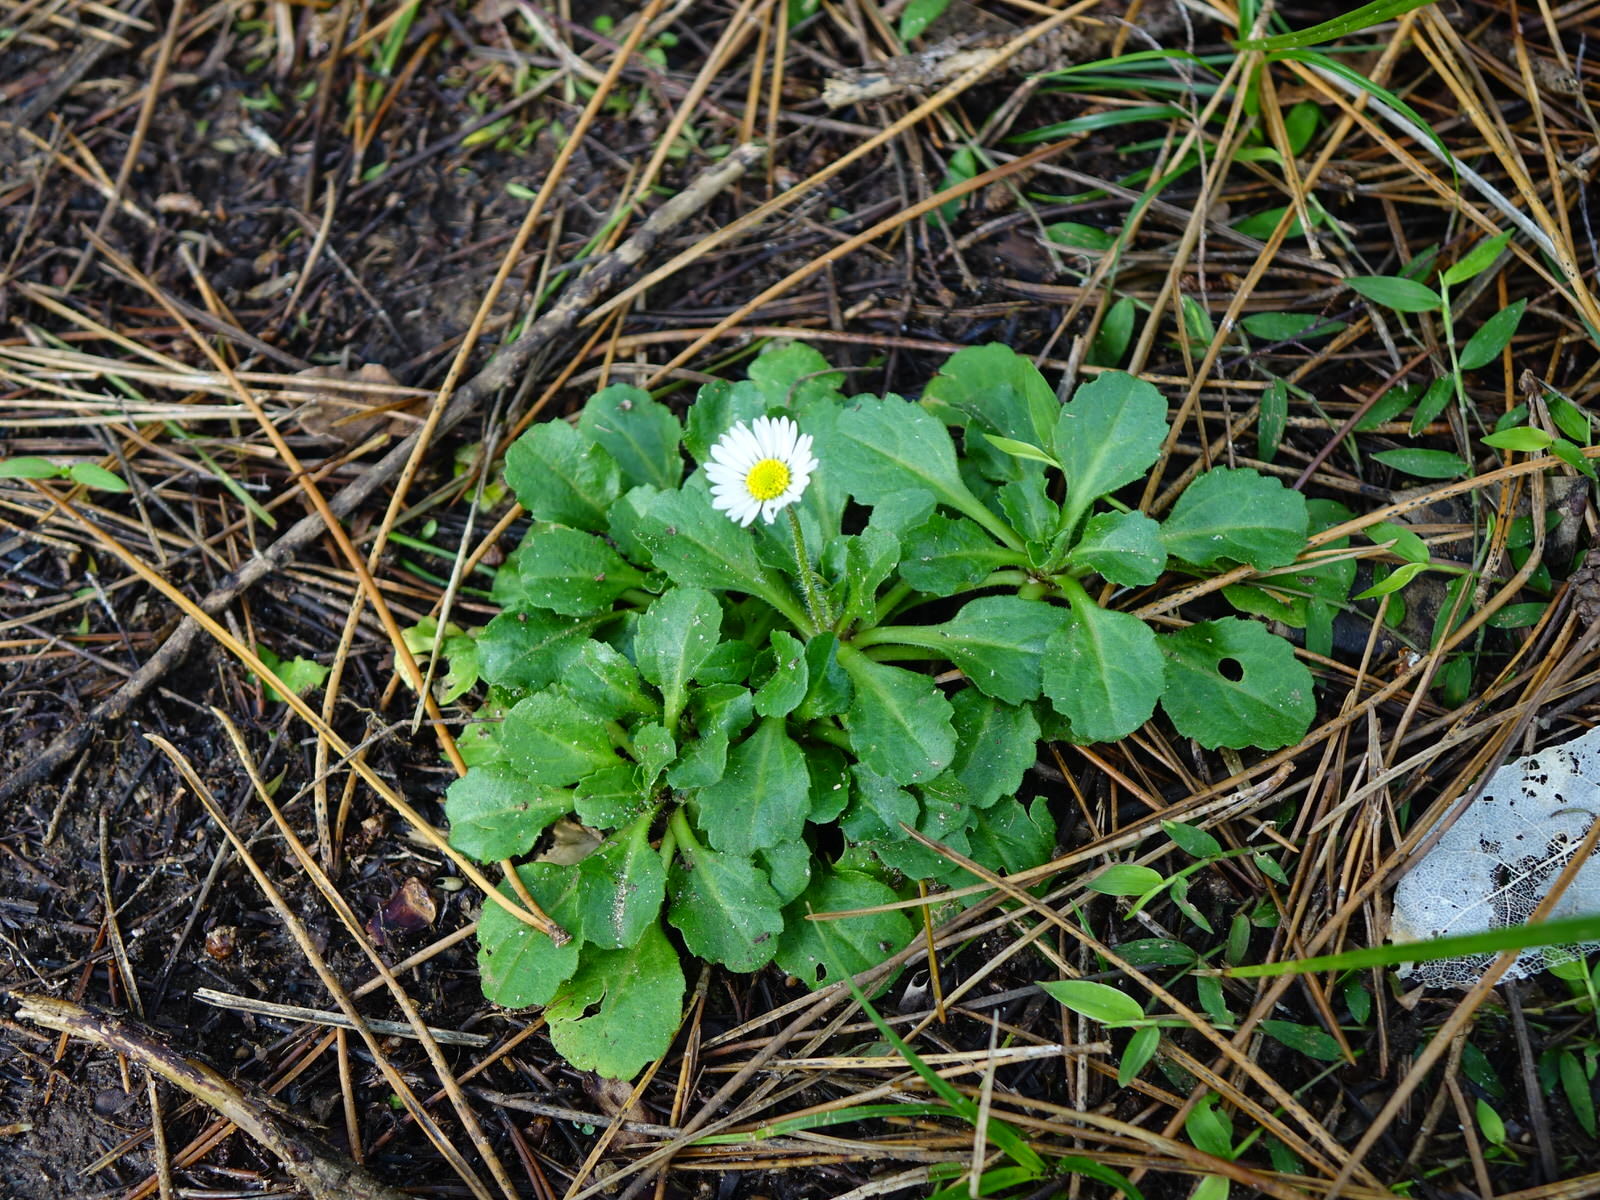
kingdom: Plantae
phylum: Tracheophyta
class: Magnoliopsida
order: Asterales
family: Asteraceae
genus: Bellis
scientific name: Bellis perennis
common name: Lawndaisy
